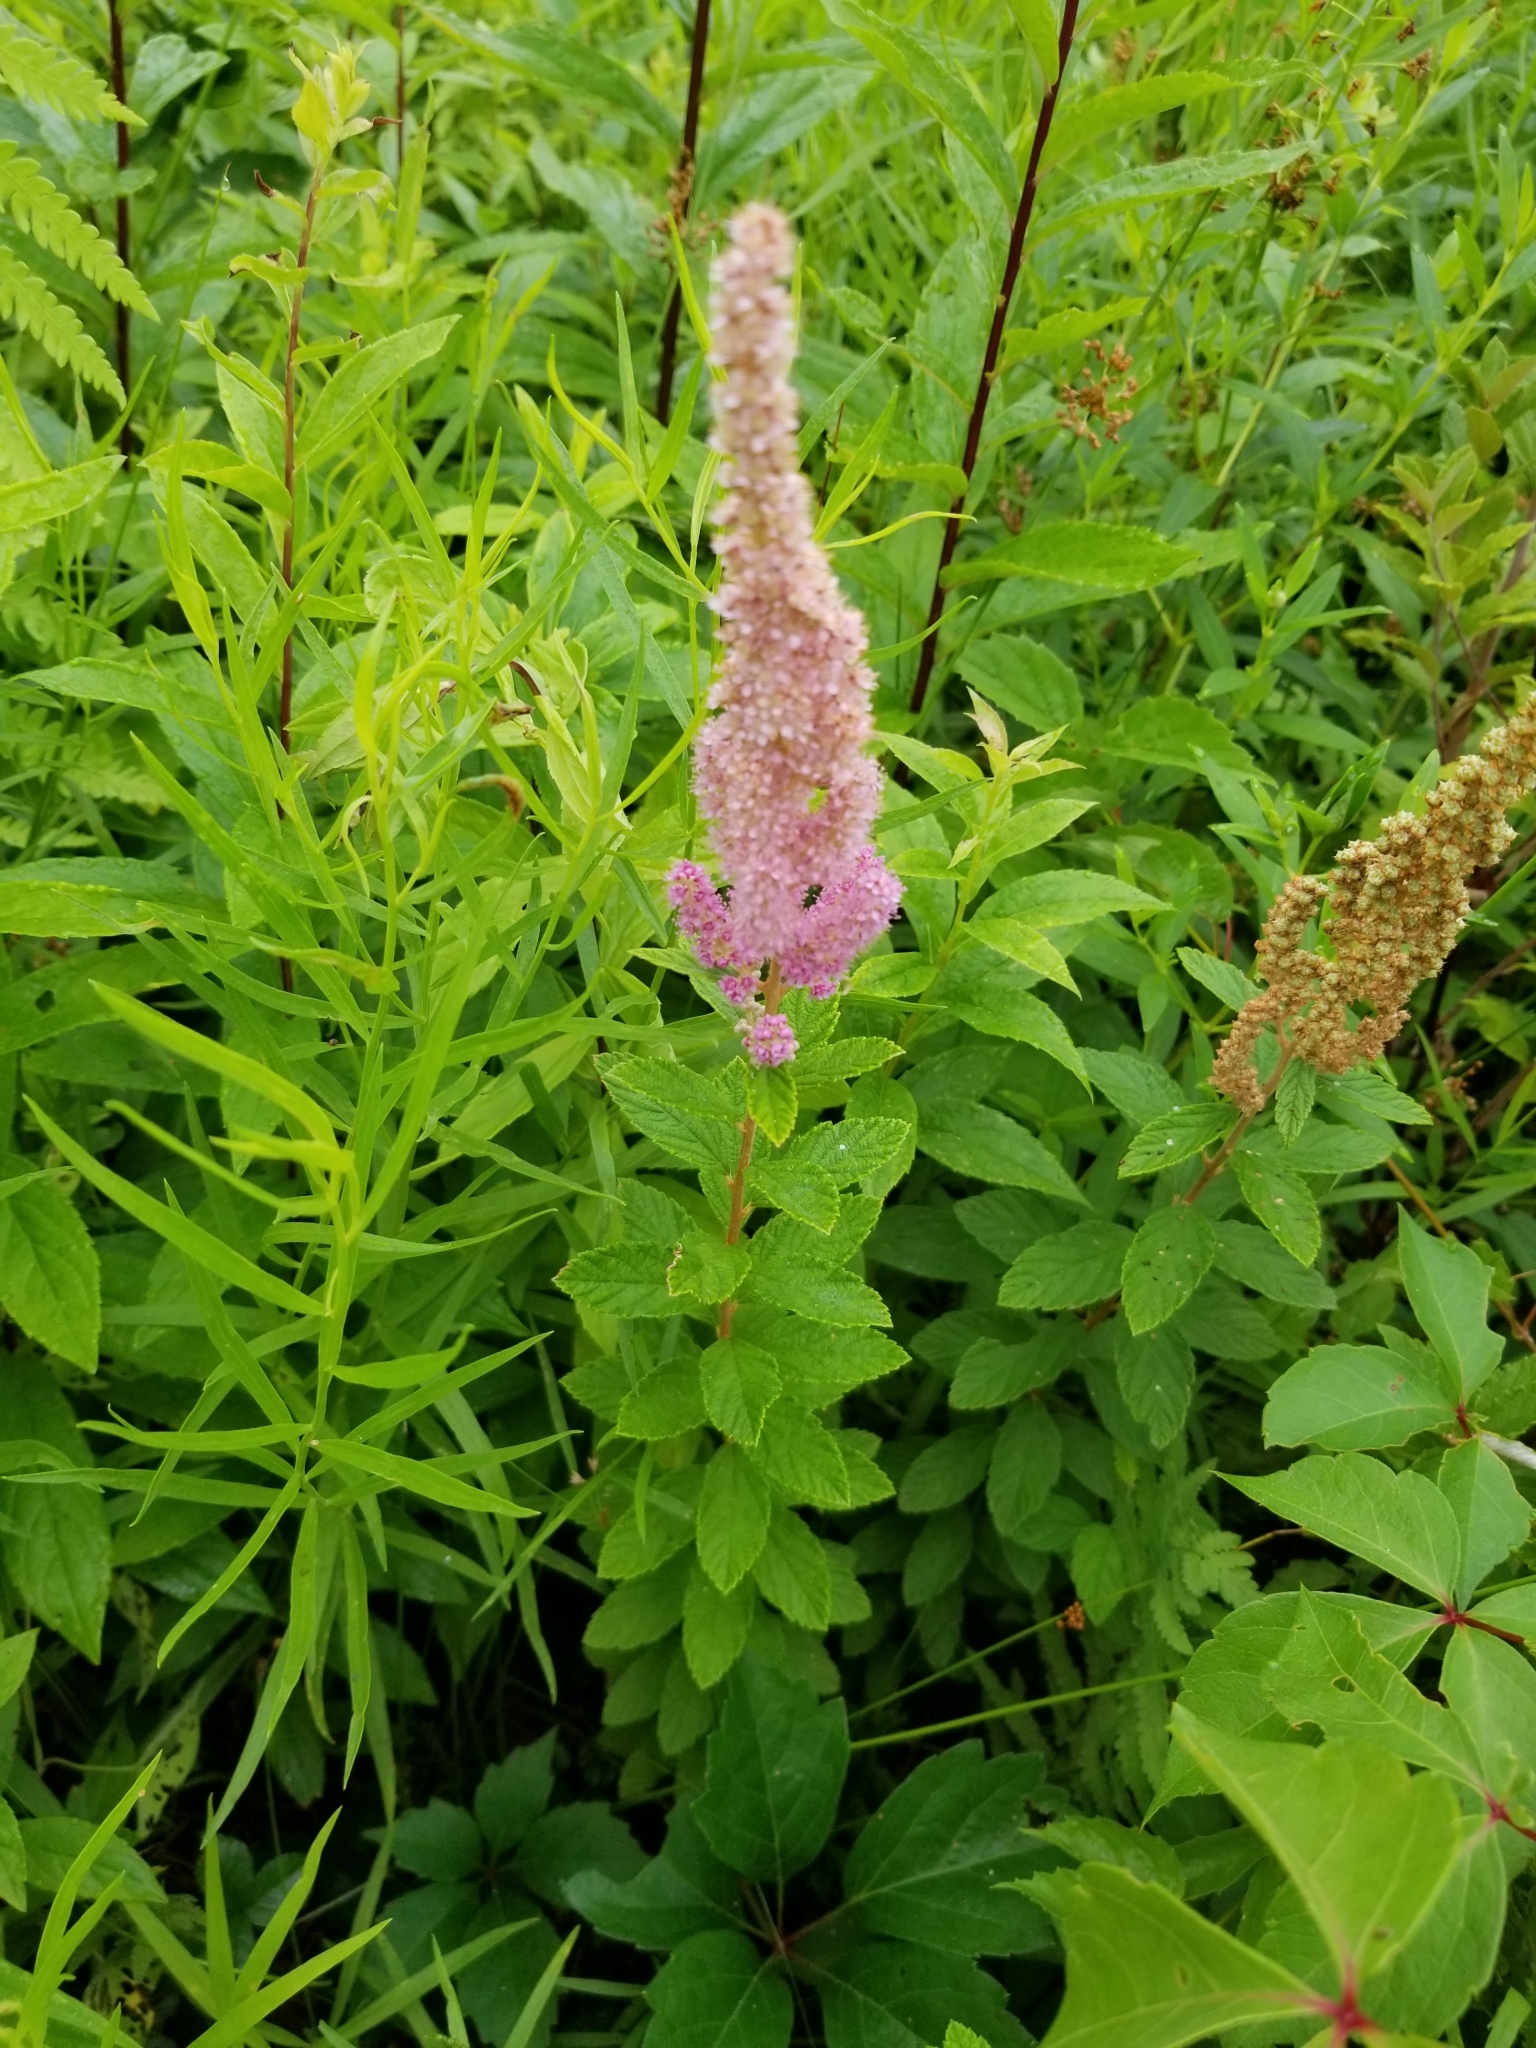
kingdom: Plantae
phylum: Tracheophyta
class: Magnoliopsida
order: Rosales
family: Rosaceae
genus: Spiraea
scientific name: Spiraea tomentosa
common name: Hardhack
